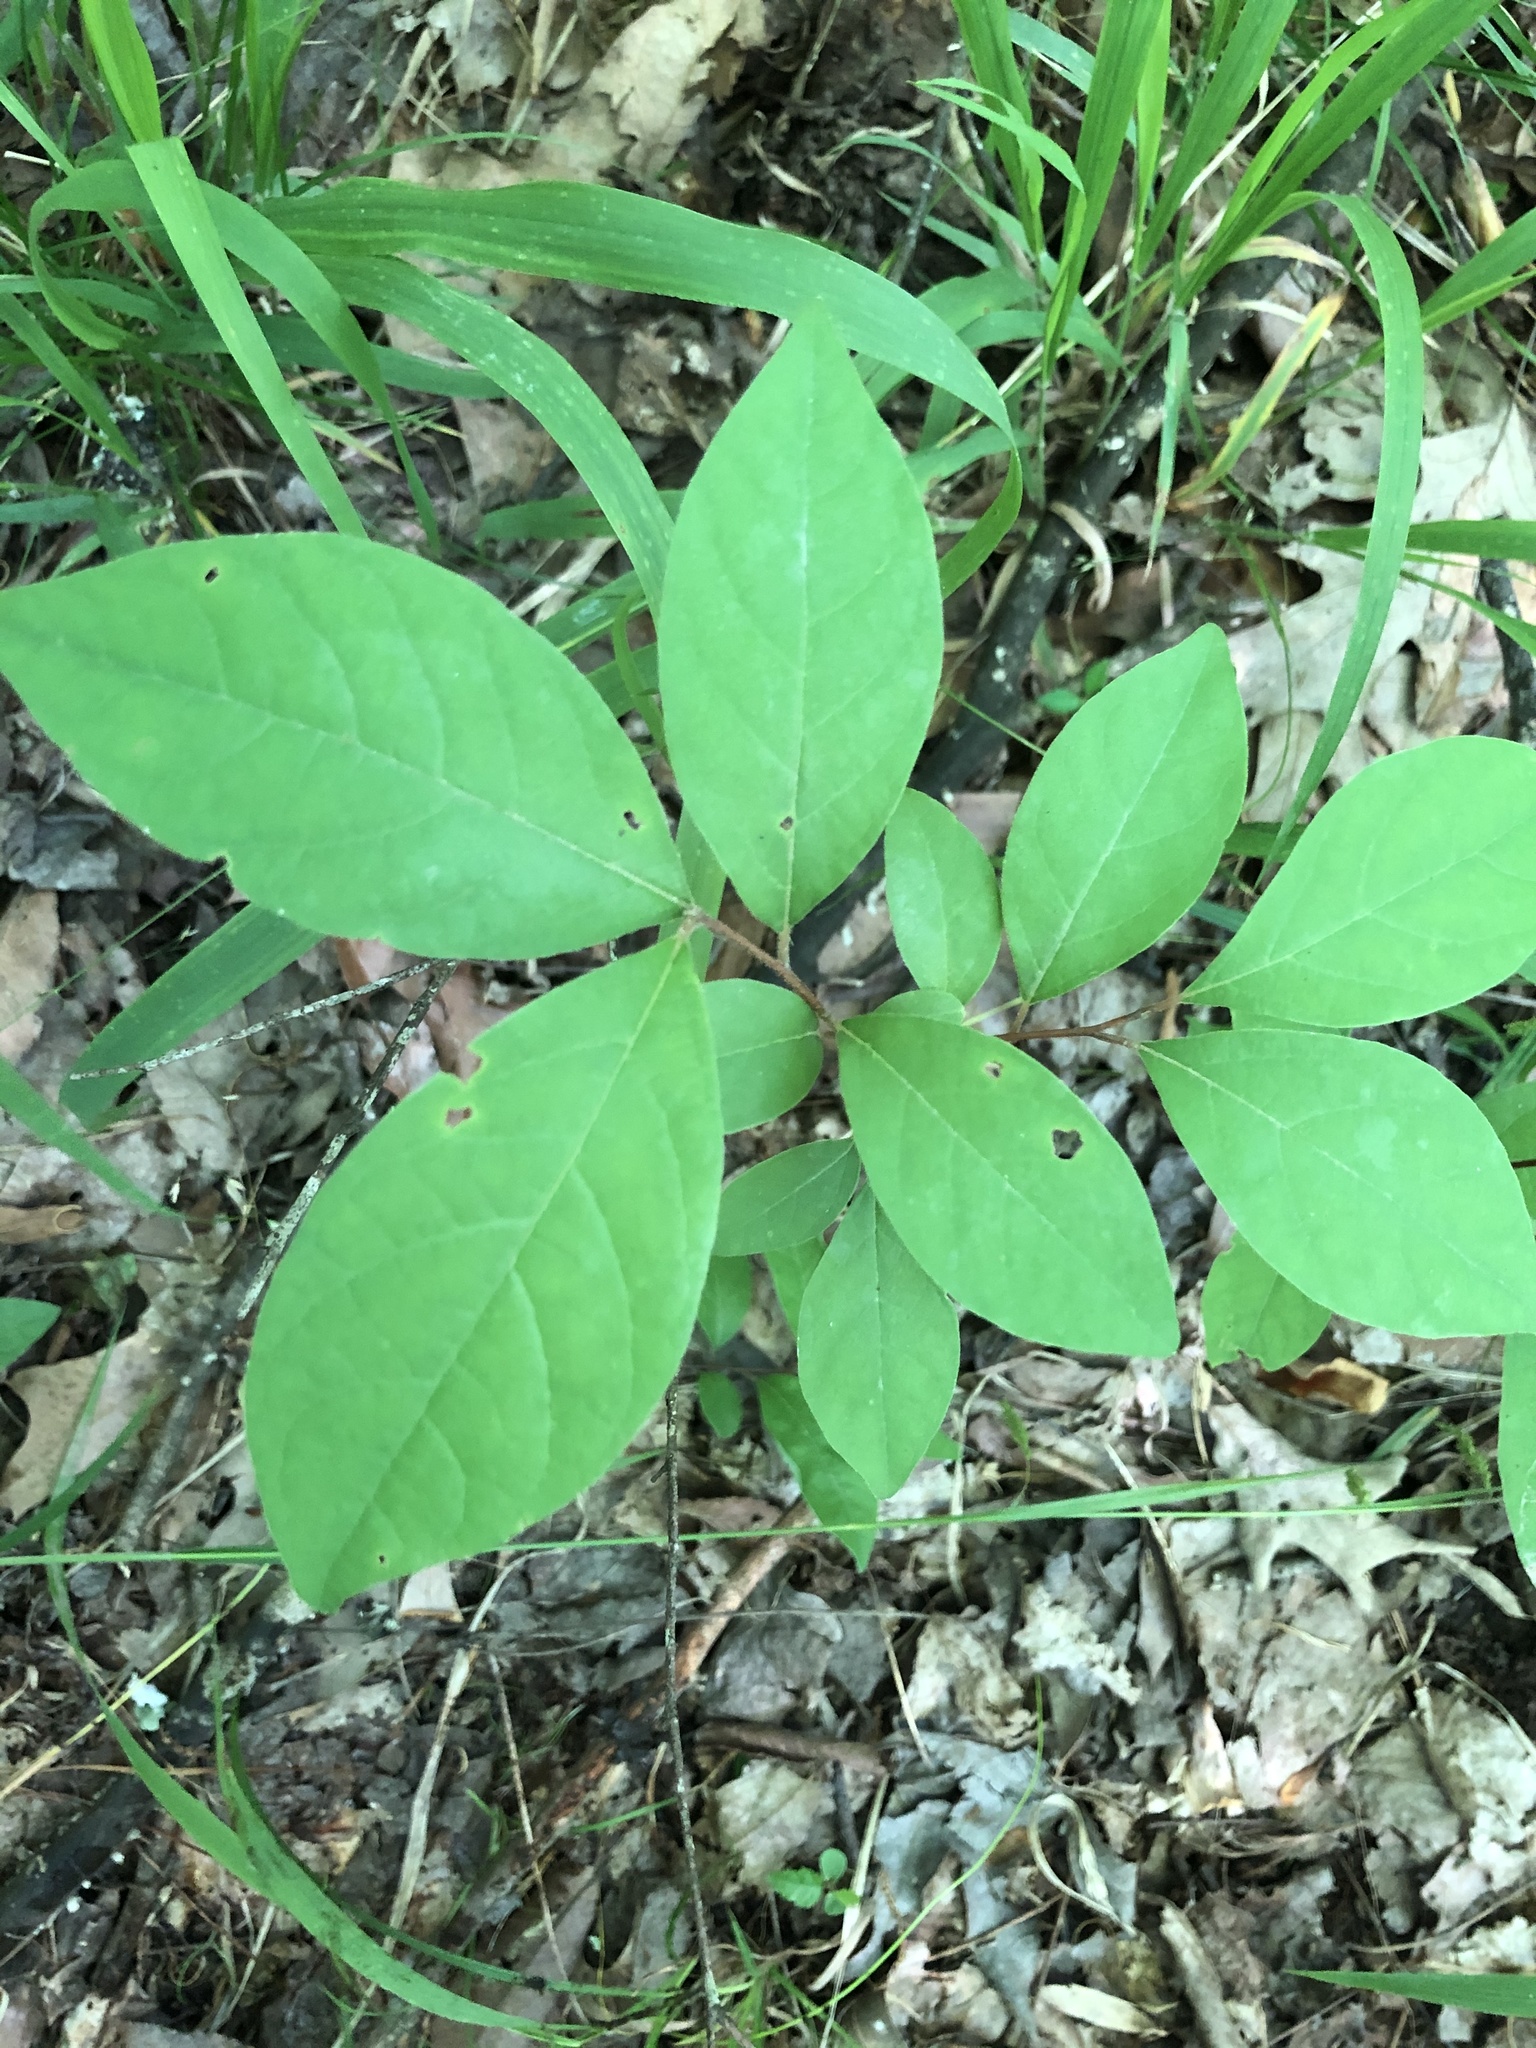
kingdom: Plantae
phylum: Tracheophyta
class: Magnoliopsida
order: Laurales
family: Lauraceae
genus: Lindera
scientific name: Lindera benzoin
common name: Spicebush
